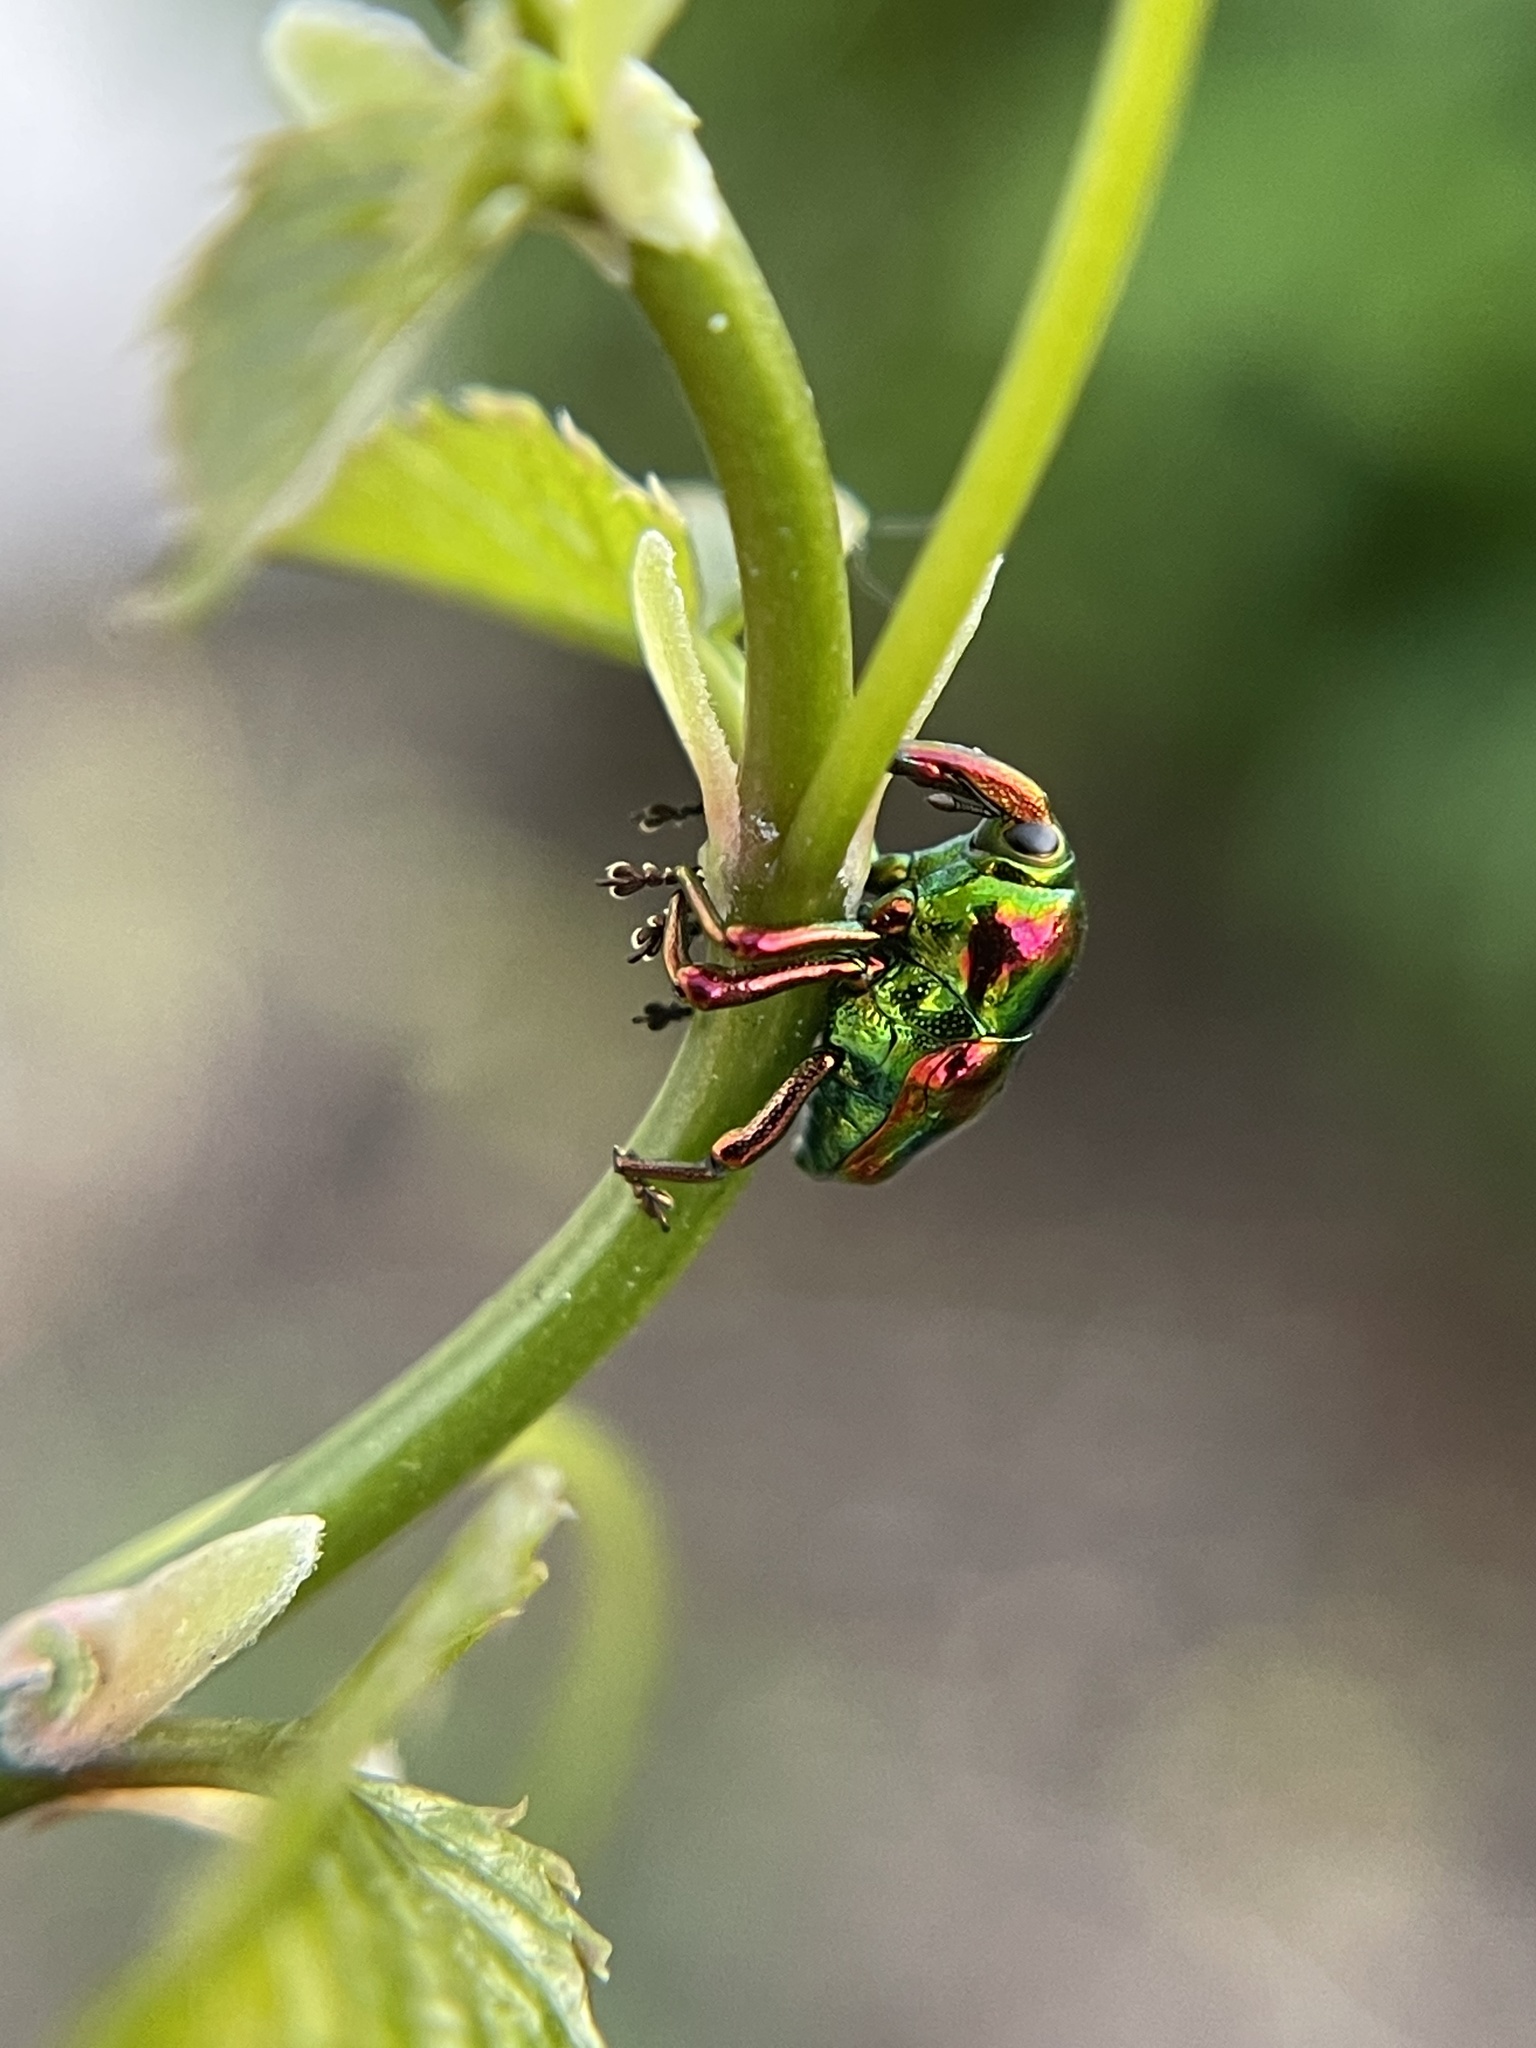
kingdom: Animalia
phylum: Arthropoda
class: Insecta
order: Coleoptera
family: Eurhynchidae
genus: Eurhinus
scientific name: Eurhinus magnificus
